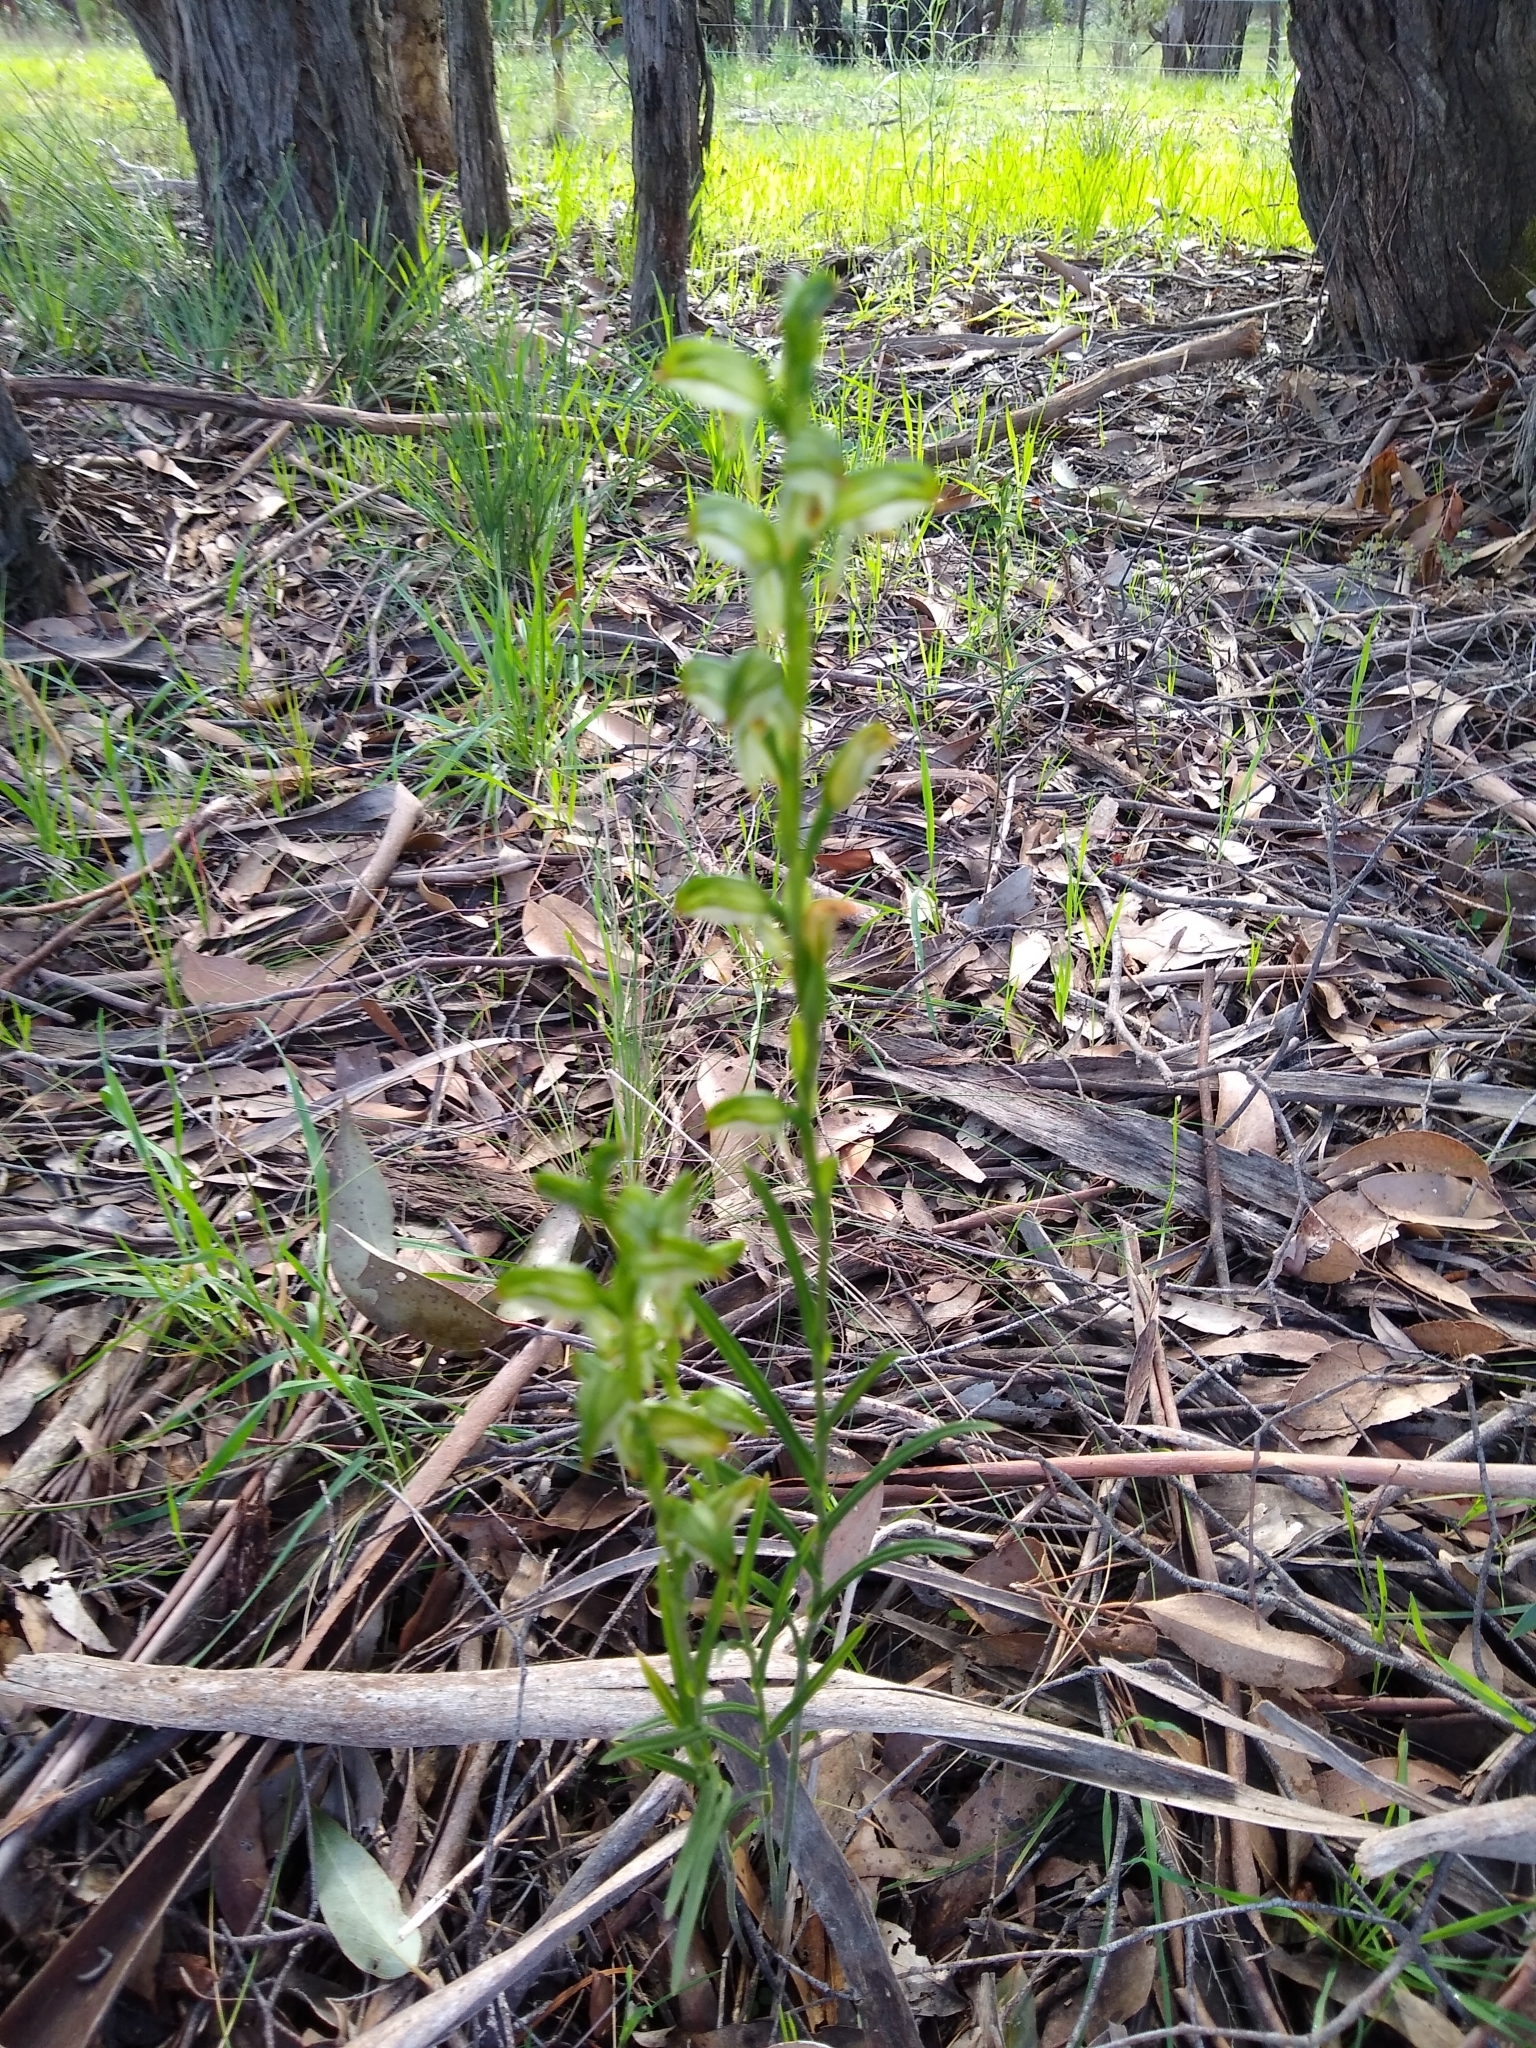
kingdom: Plantae
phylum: Tracheophyta
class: Liliopsida
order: Asparagales
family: Orchidaceae
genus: Pterostylis
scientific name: Pterostylis melagramma
